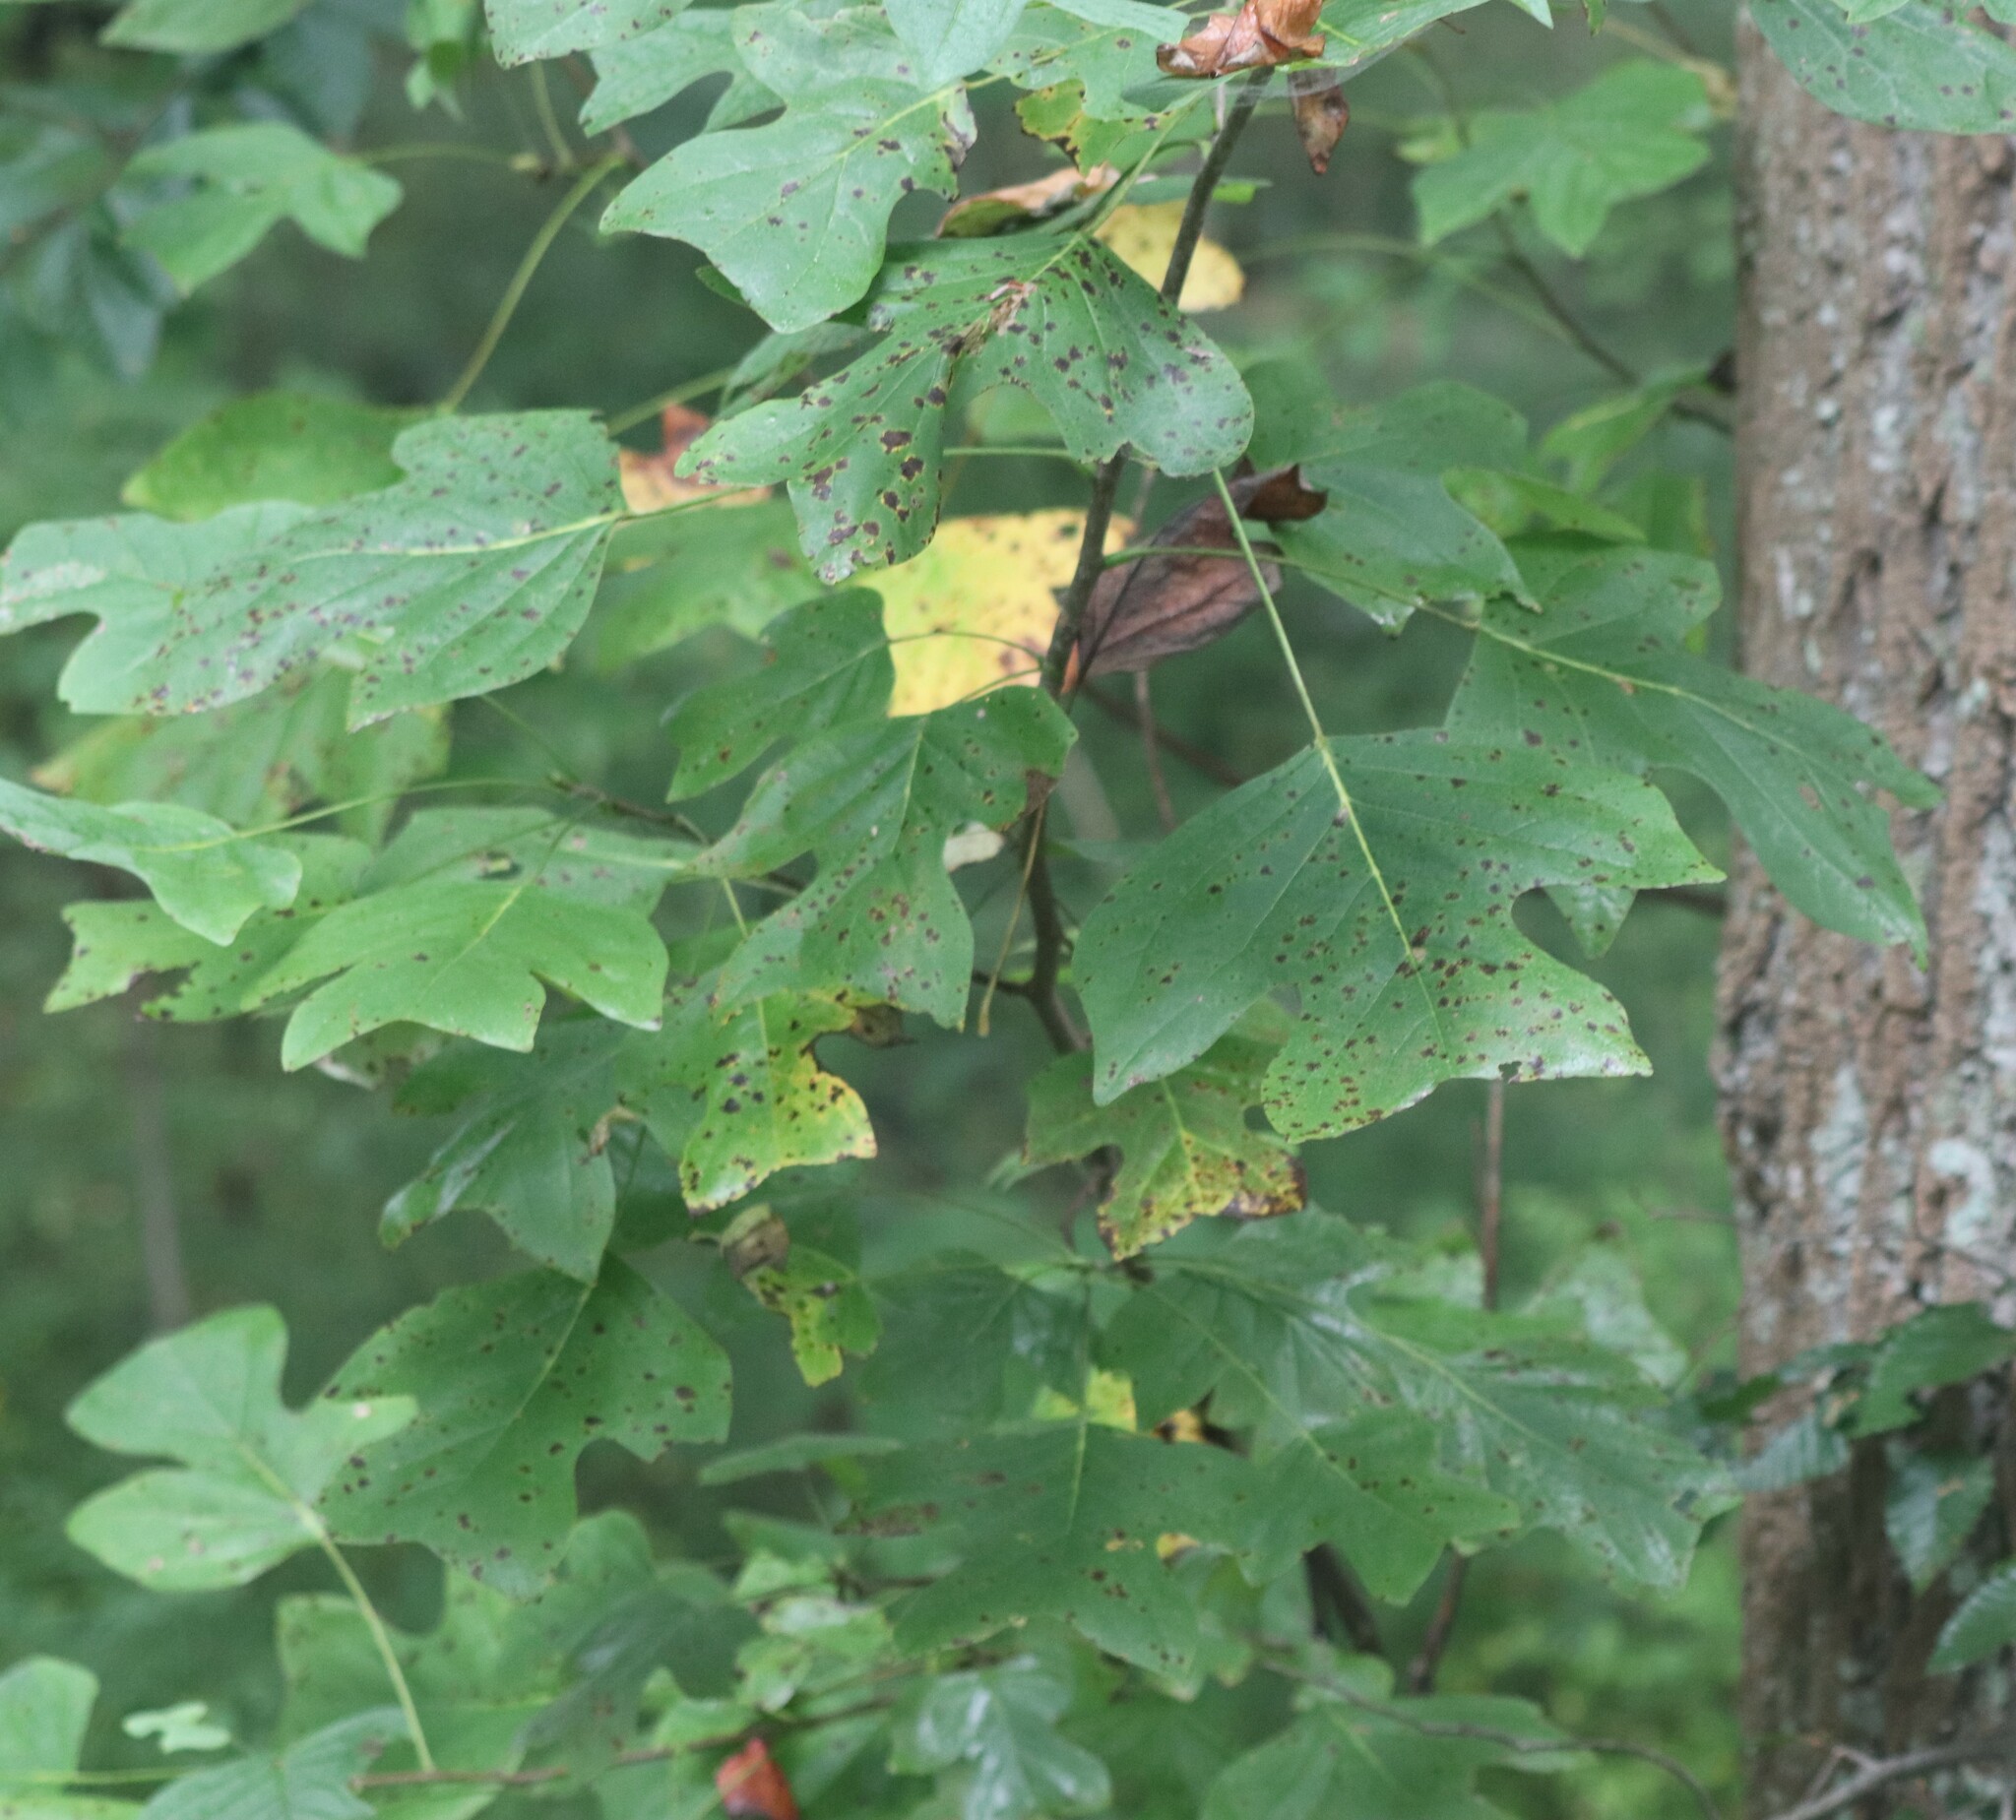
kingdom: Plantae
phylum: Tracheophyta
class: Magnoliopsida
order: Magnoliales
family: Magnoliaceae
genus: Liriodendron
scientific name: Liriodendron tulipifera
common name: Tulip tree
